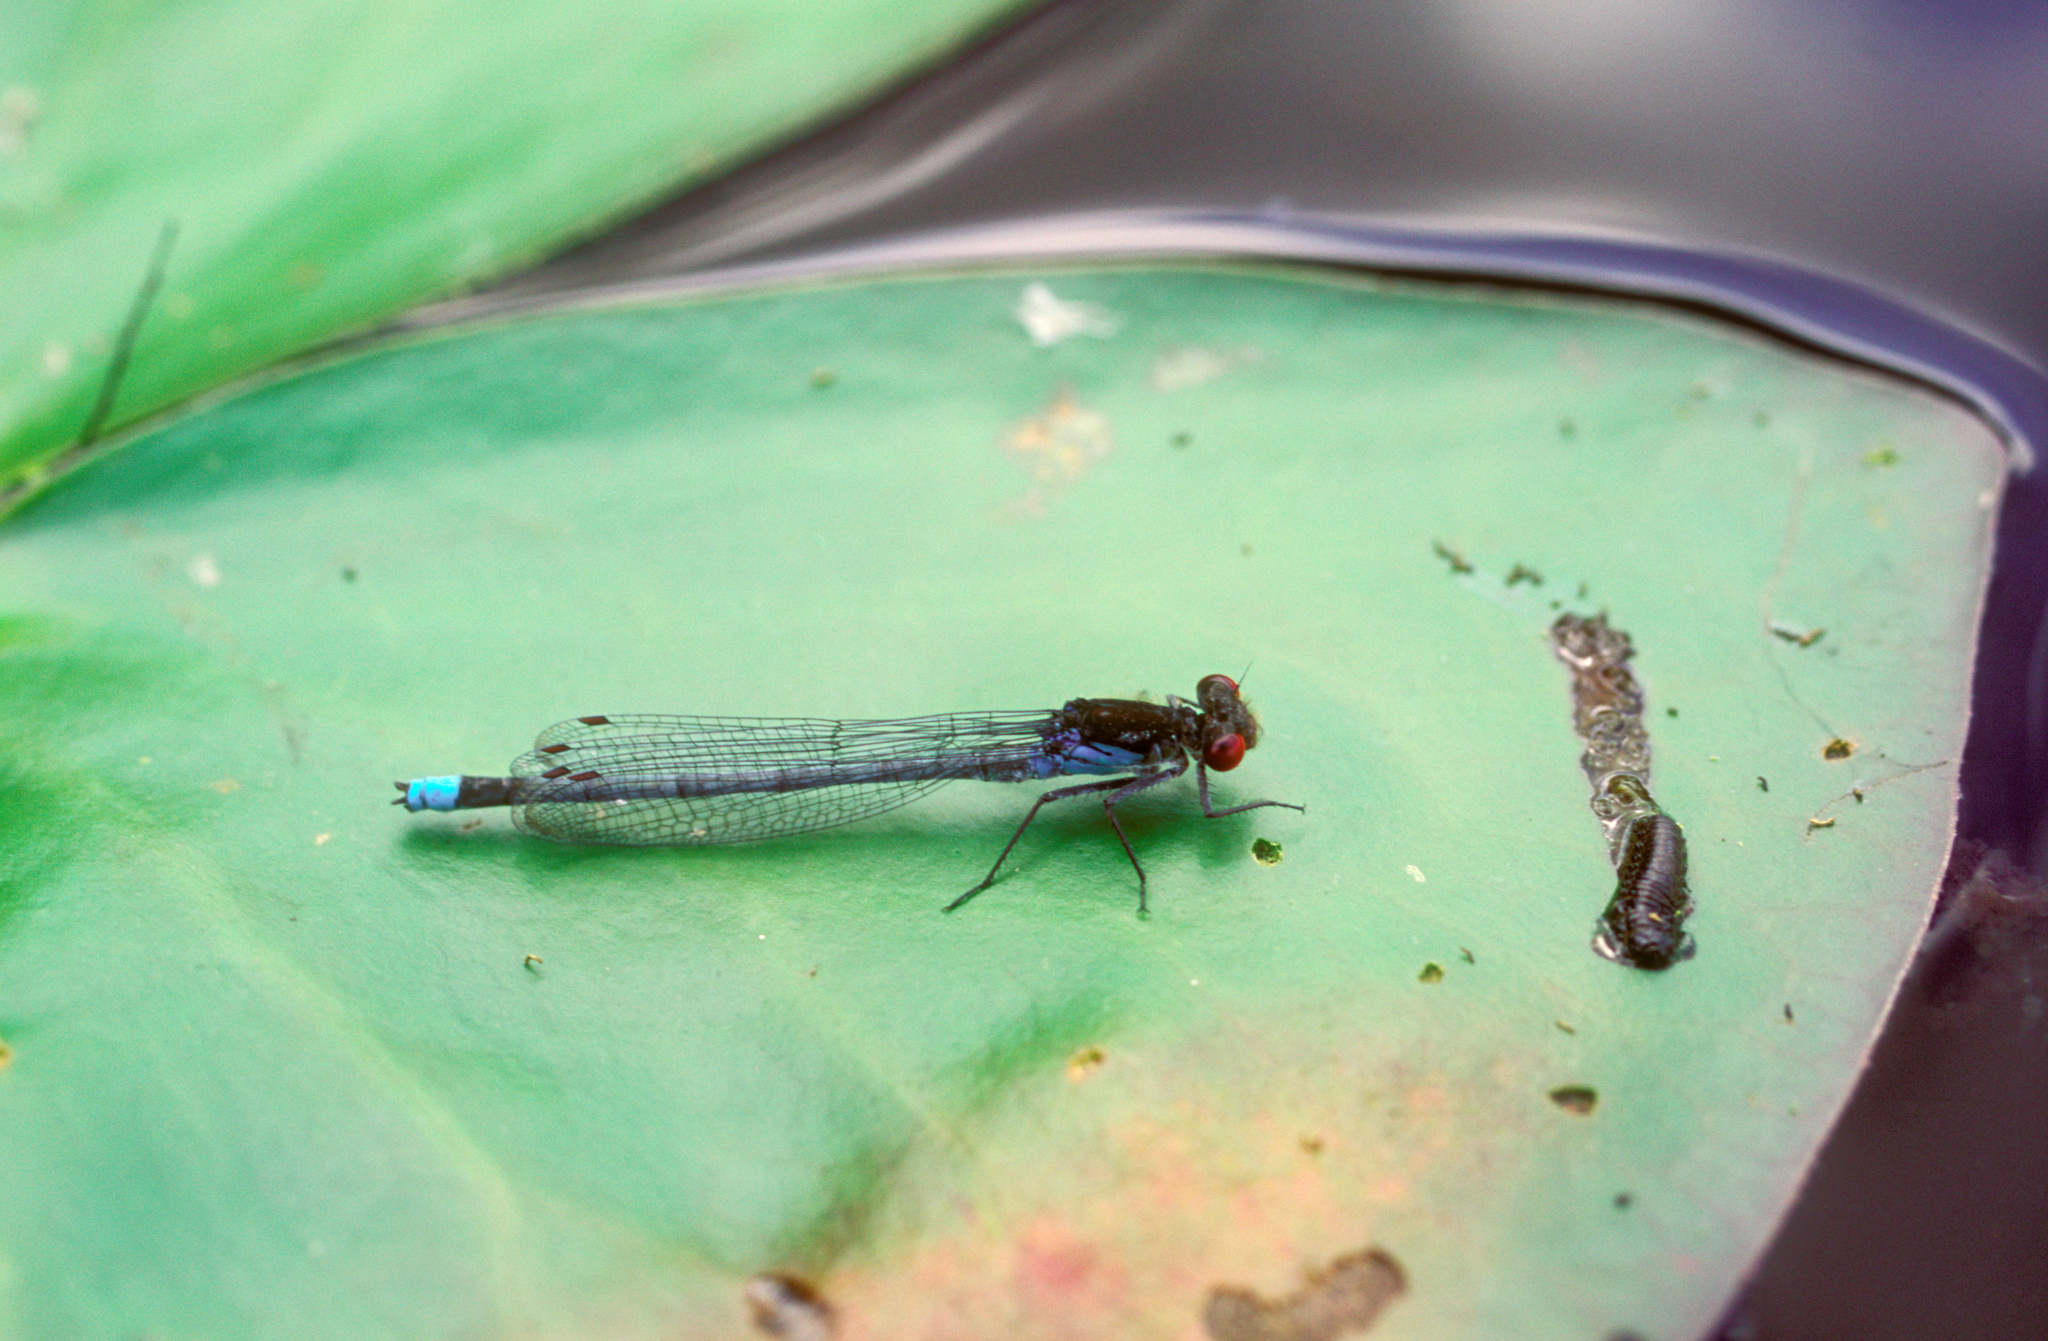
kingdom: Animalia
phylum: Arthropoda
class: Insecta
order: Odonata
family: Coenagrionidae
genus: Erythromma
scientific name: Erythromma najas
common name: Red-eyed damselfly
